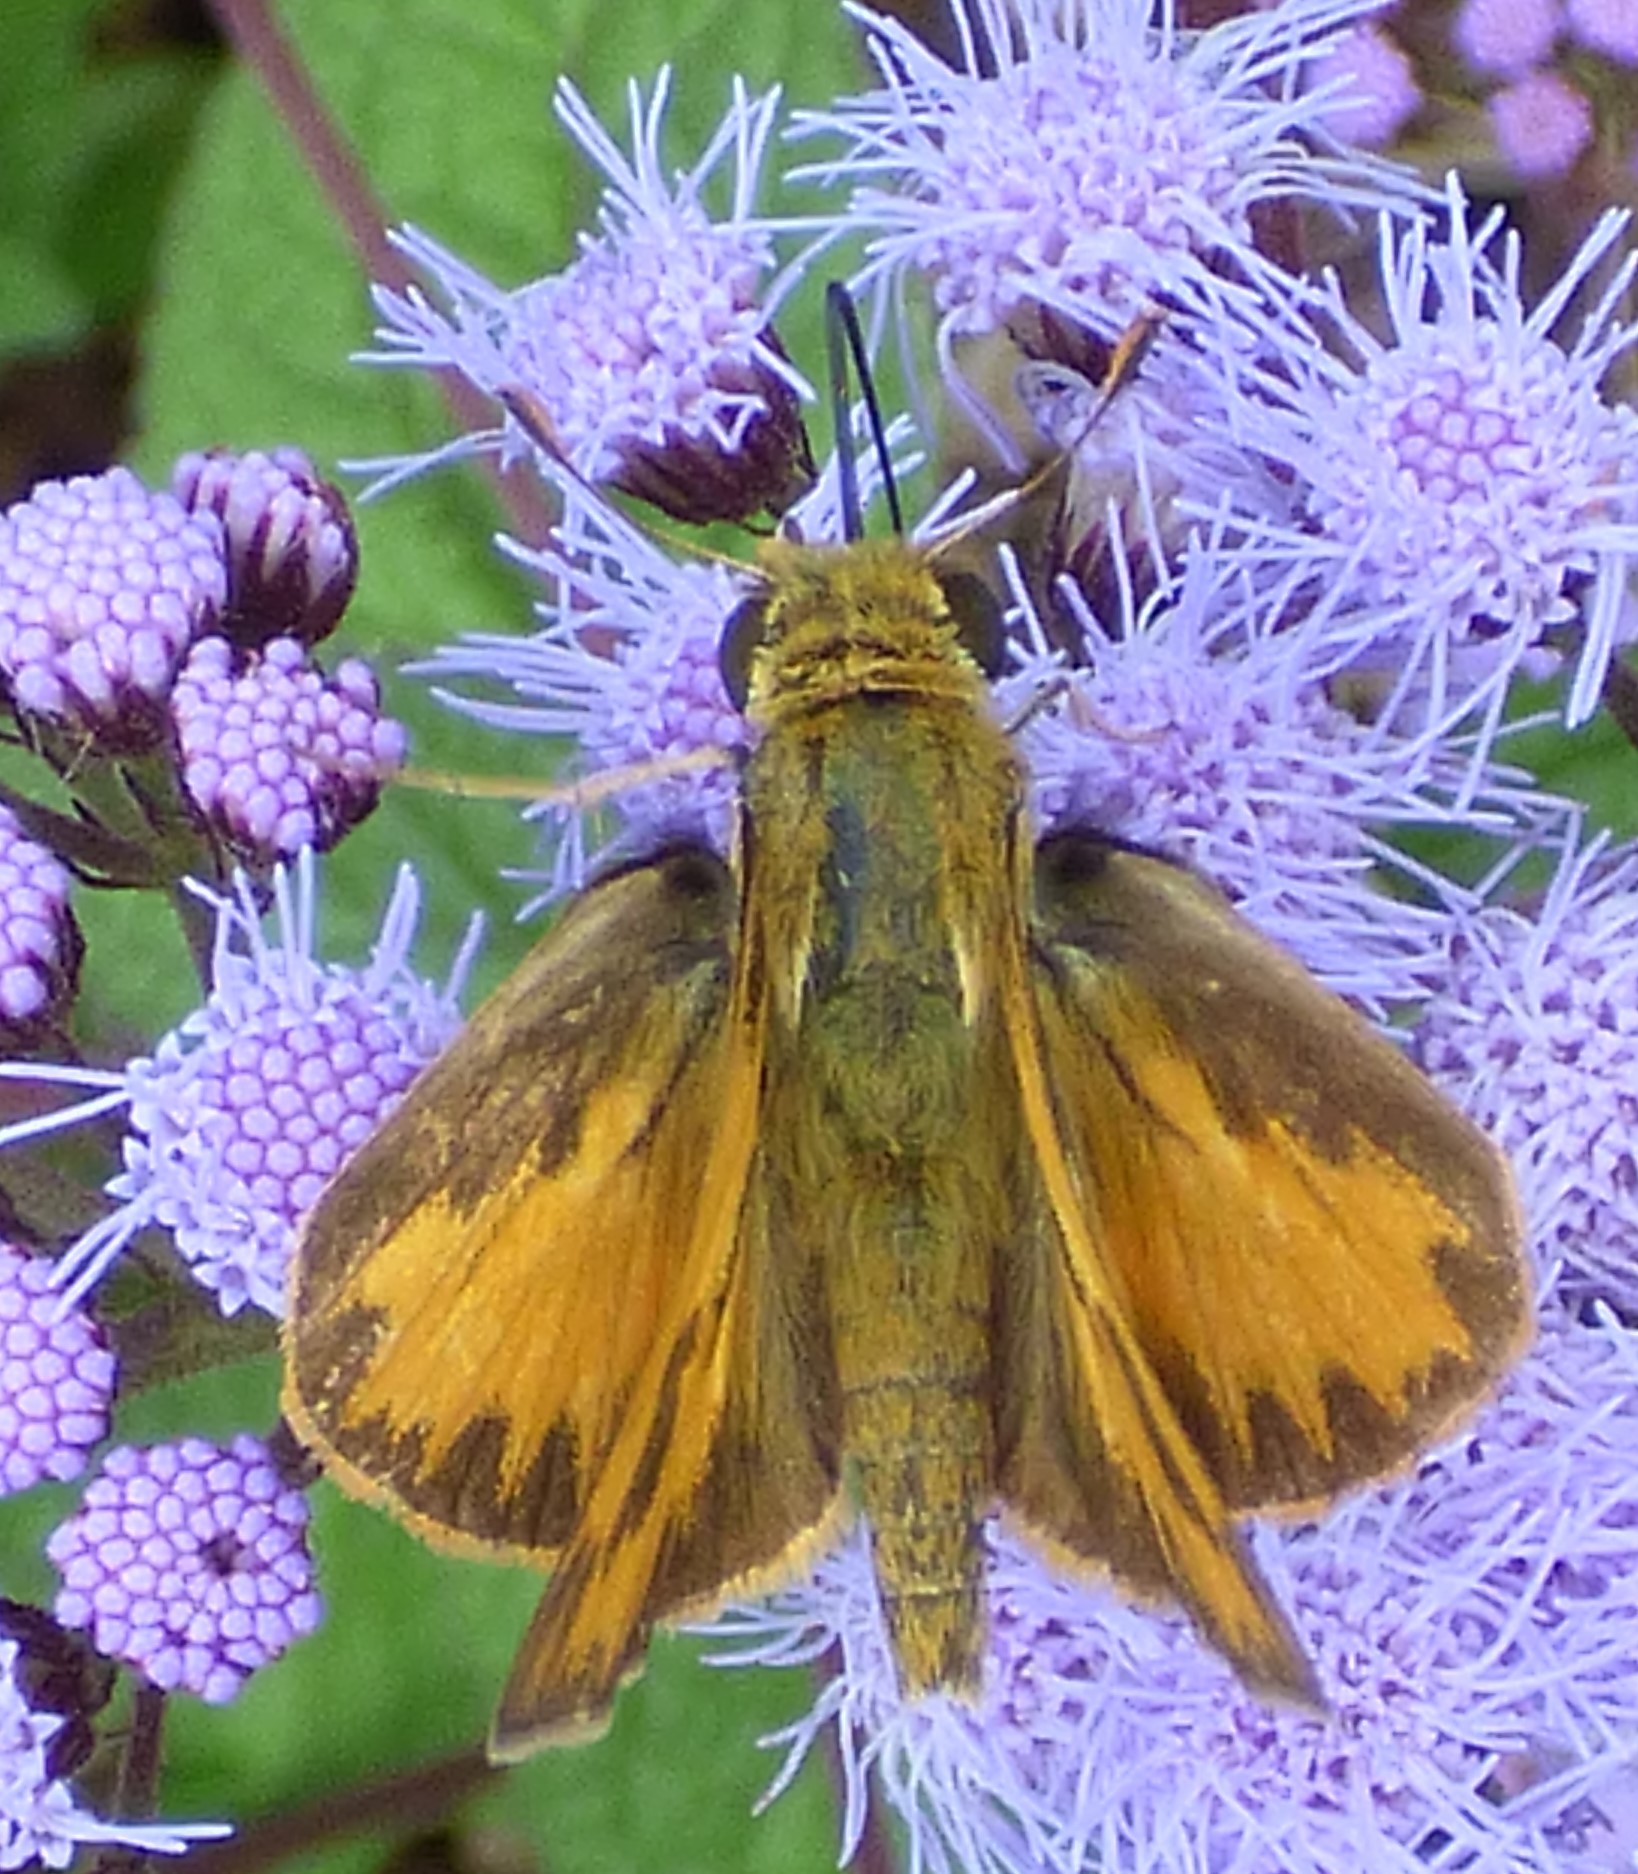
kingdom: Animalia
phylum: Arthropoda
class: Insecta
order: Lepidoptera
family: Hesperiidae
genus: Hylephila
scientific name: Hylephila phyleus
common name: Fiery skipper
